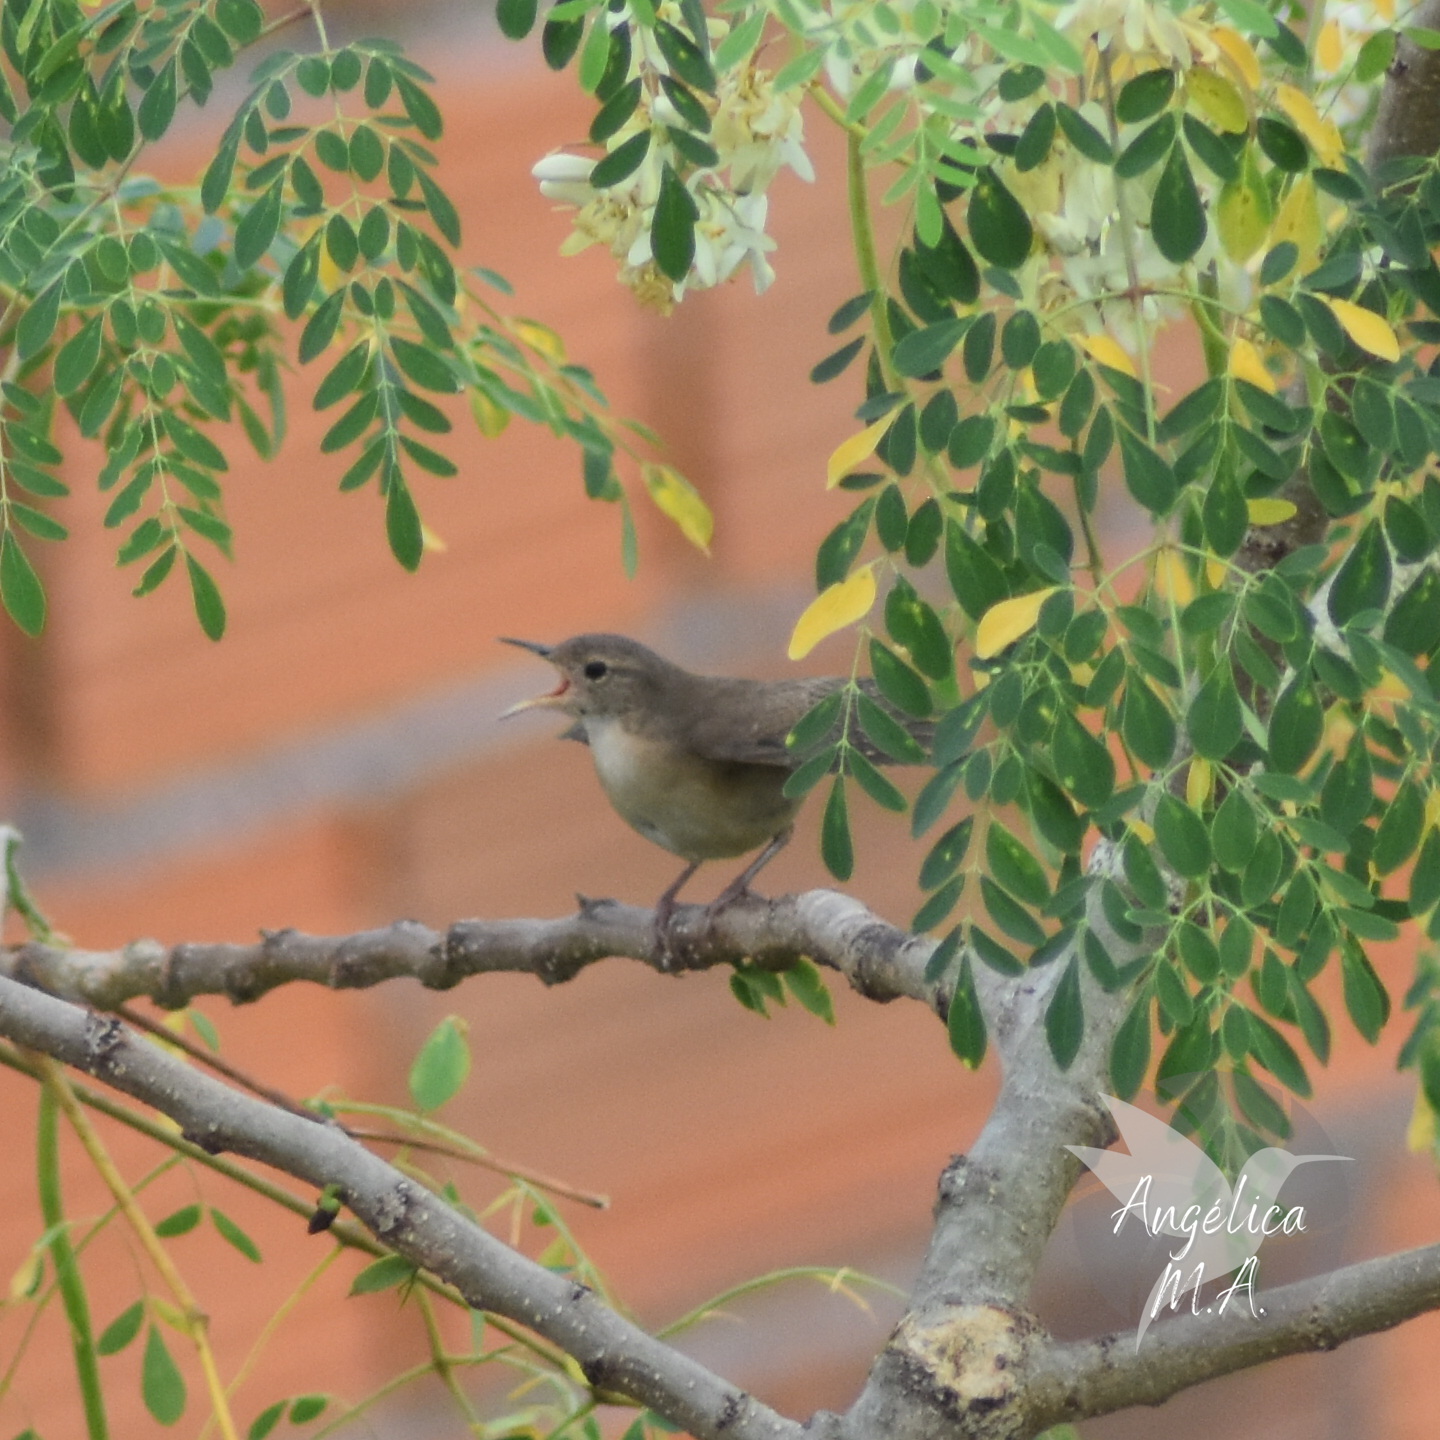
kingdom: Animalia
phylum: Chordata
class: Aves
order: Passeriformes
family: Troglodytidae
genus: Troglodytes
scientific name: Troglodytes aedon
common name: House wren
